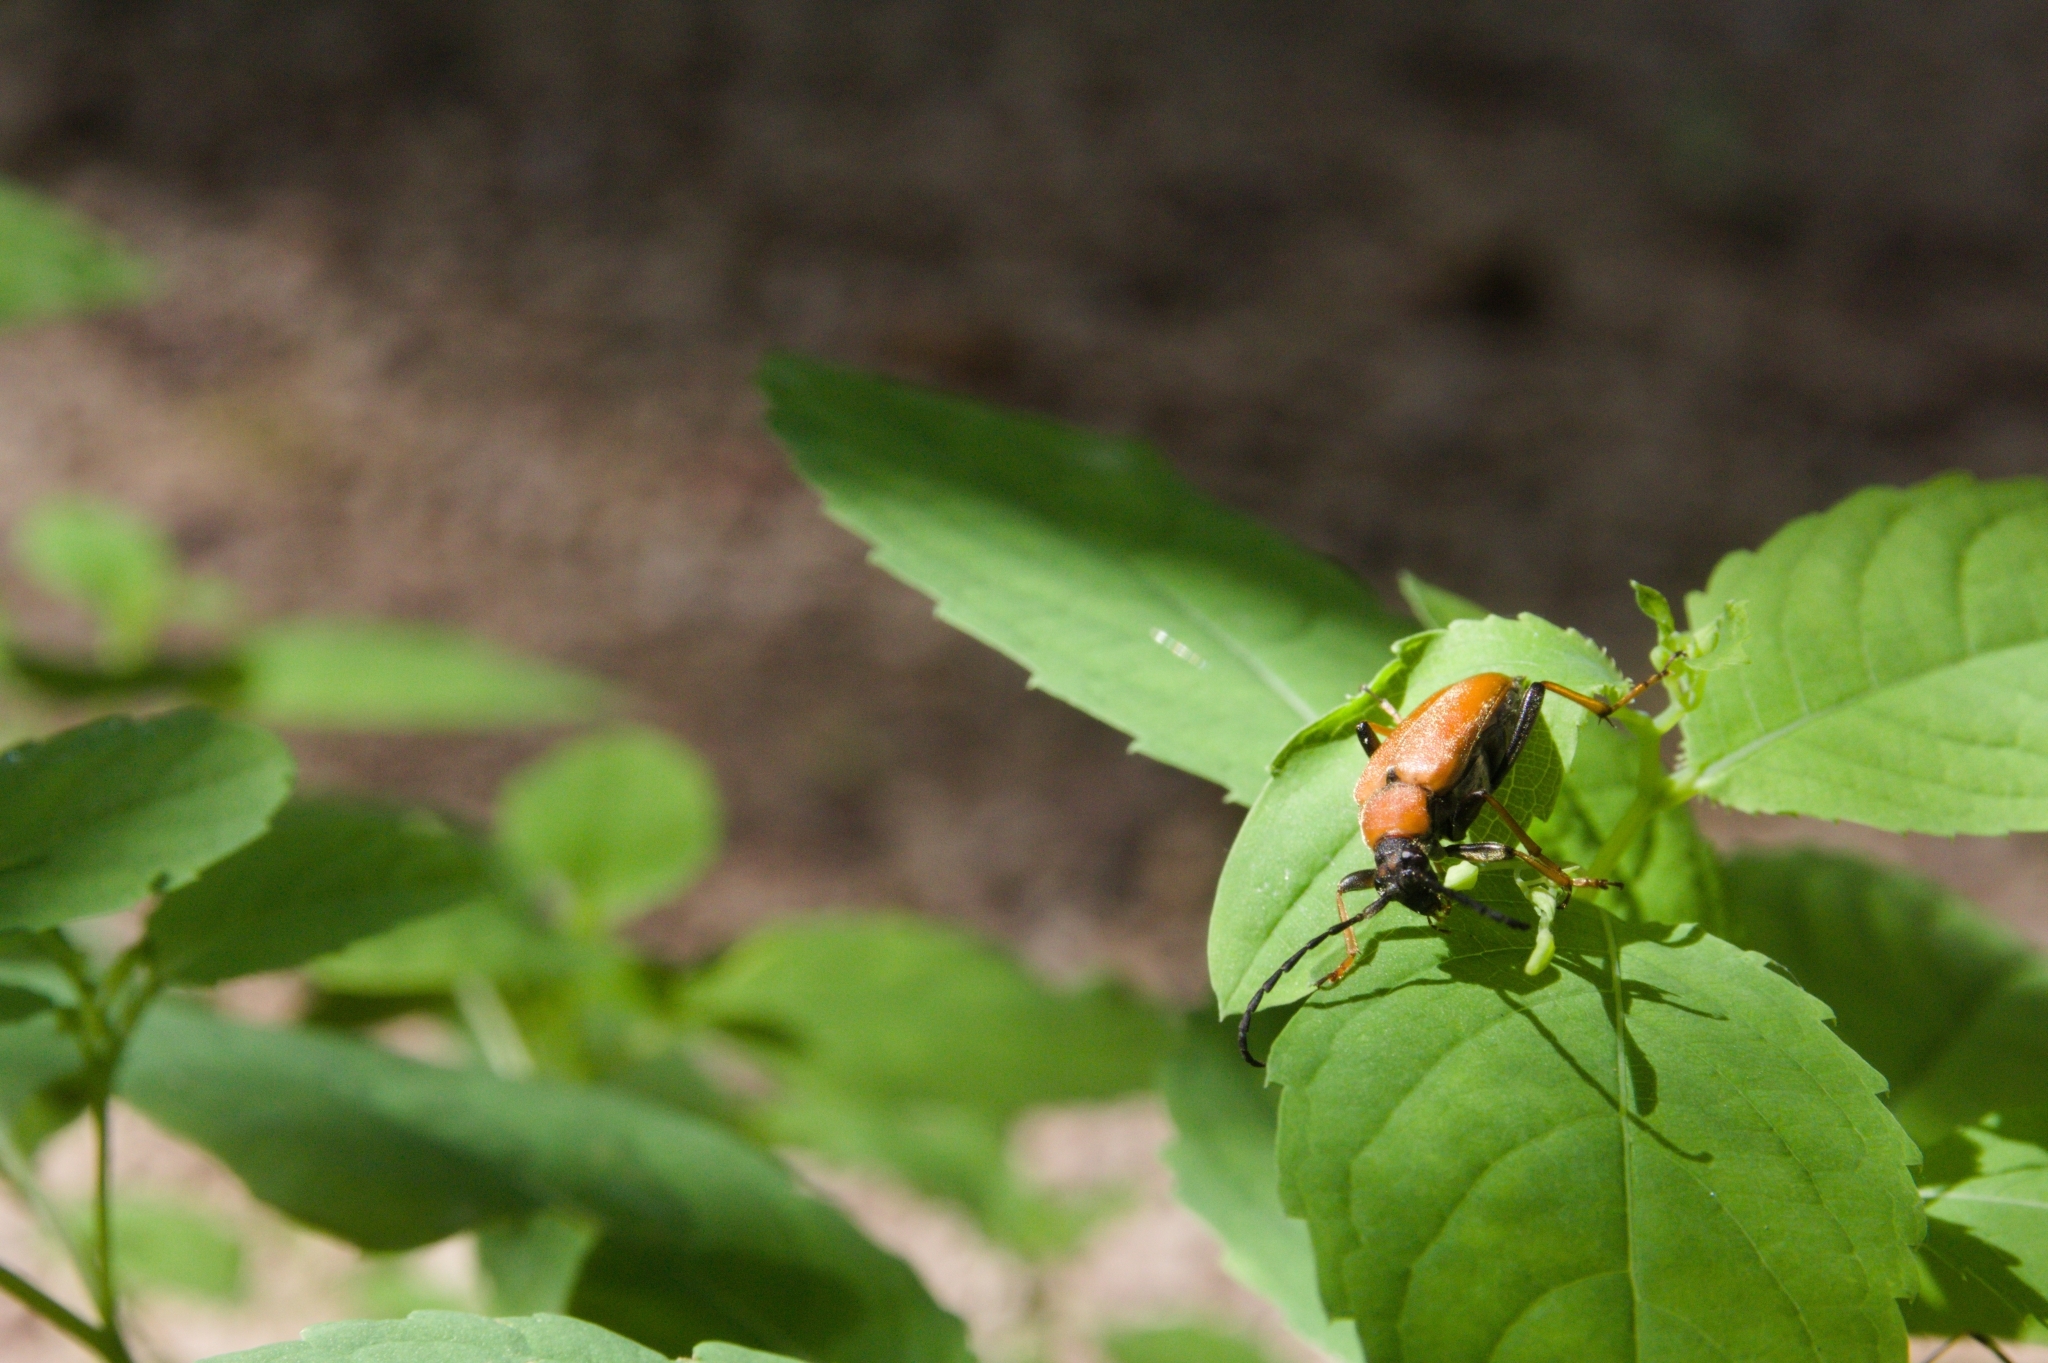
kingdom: Animalia
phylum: Arthropoda
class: Insecta
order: Coleoptera
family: Cerambycidae
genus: Stictoleptura
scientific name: Stictoleptura rubra
